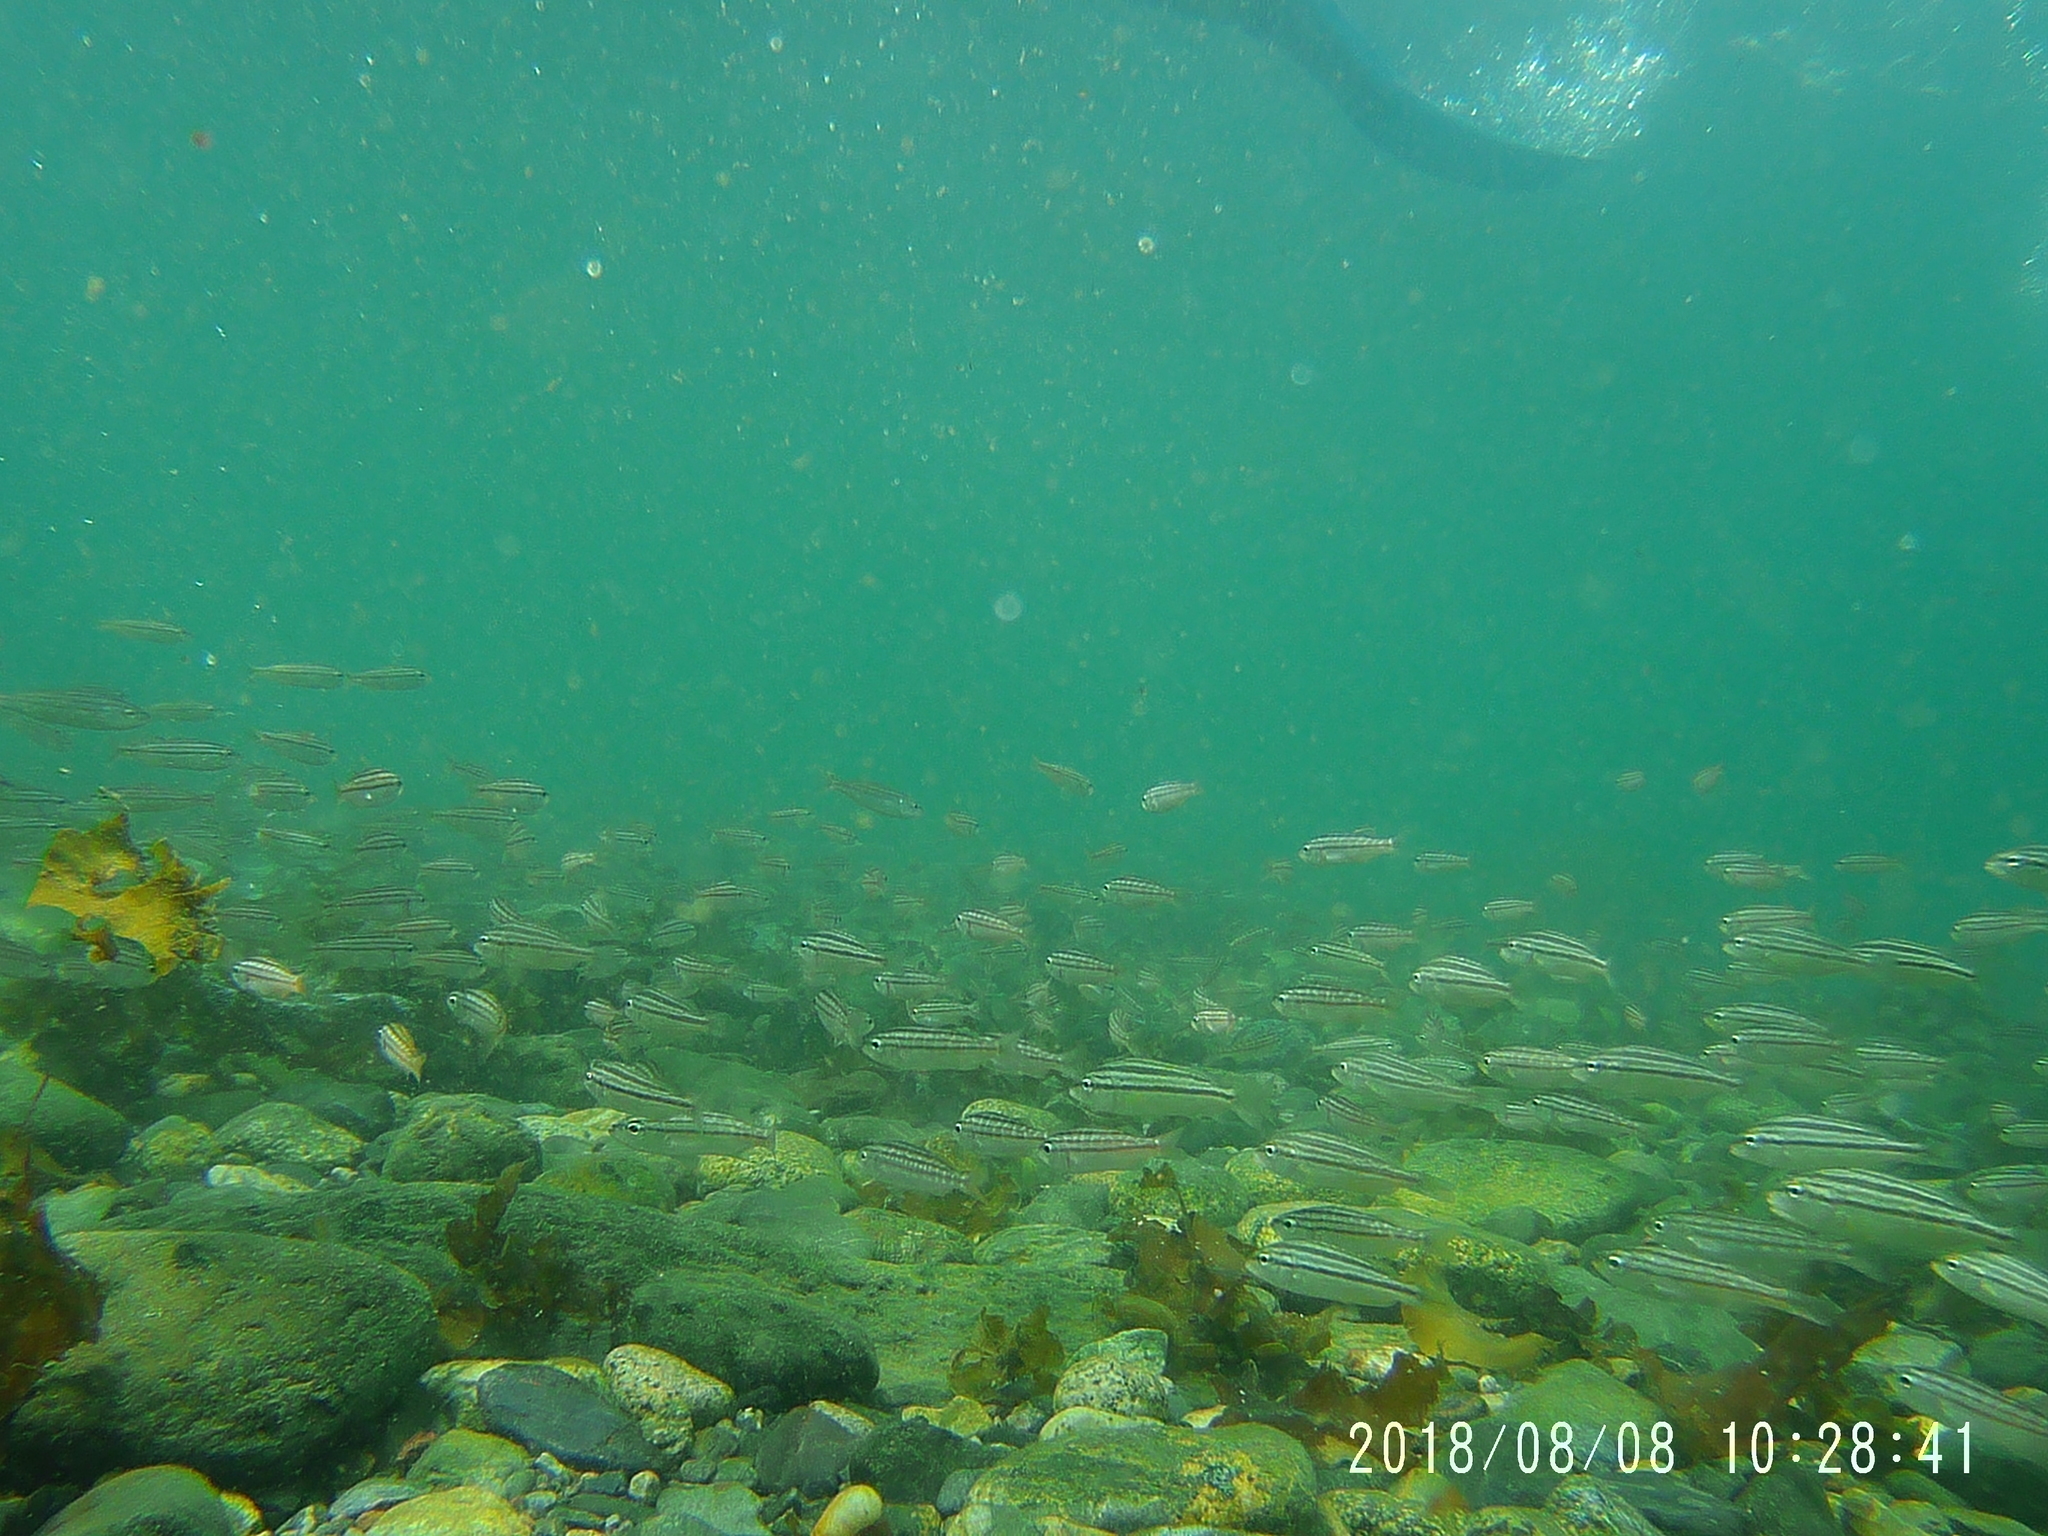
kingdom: Animalia
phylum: Chordata
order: Perciformes
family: Haemulidae
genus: Haemulon
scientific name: Haemulon californiensis
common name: Californian salema
